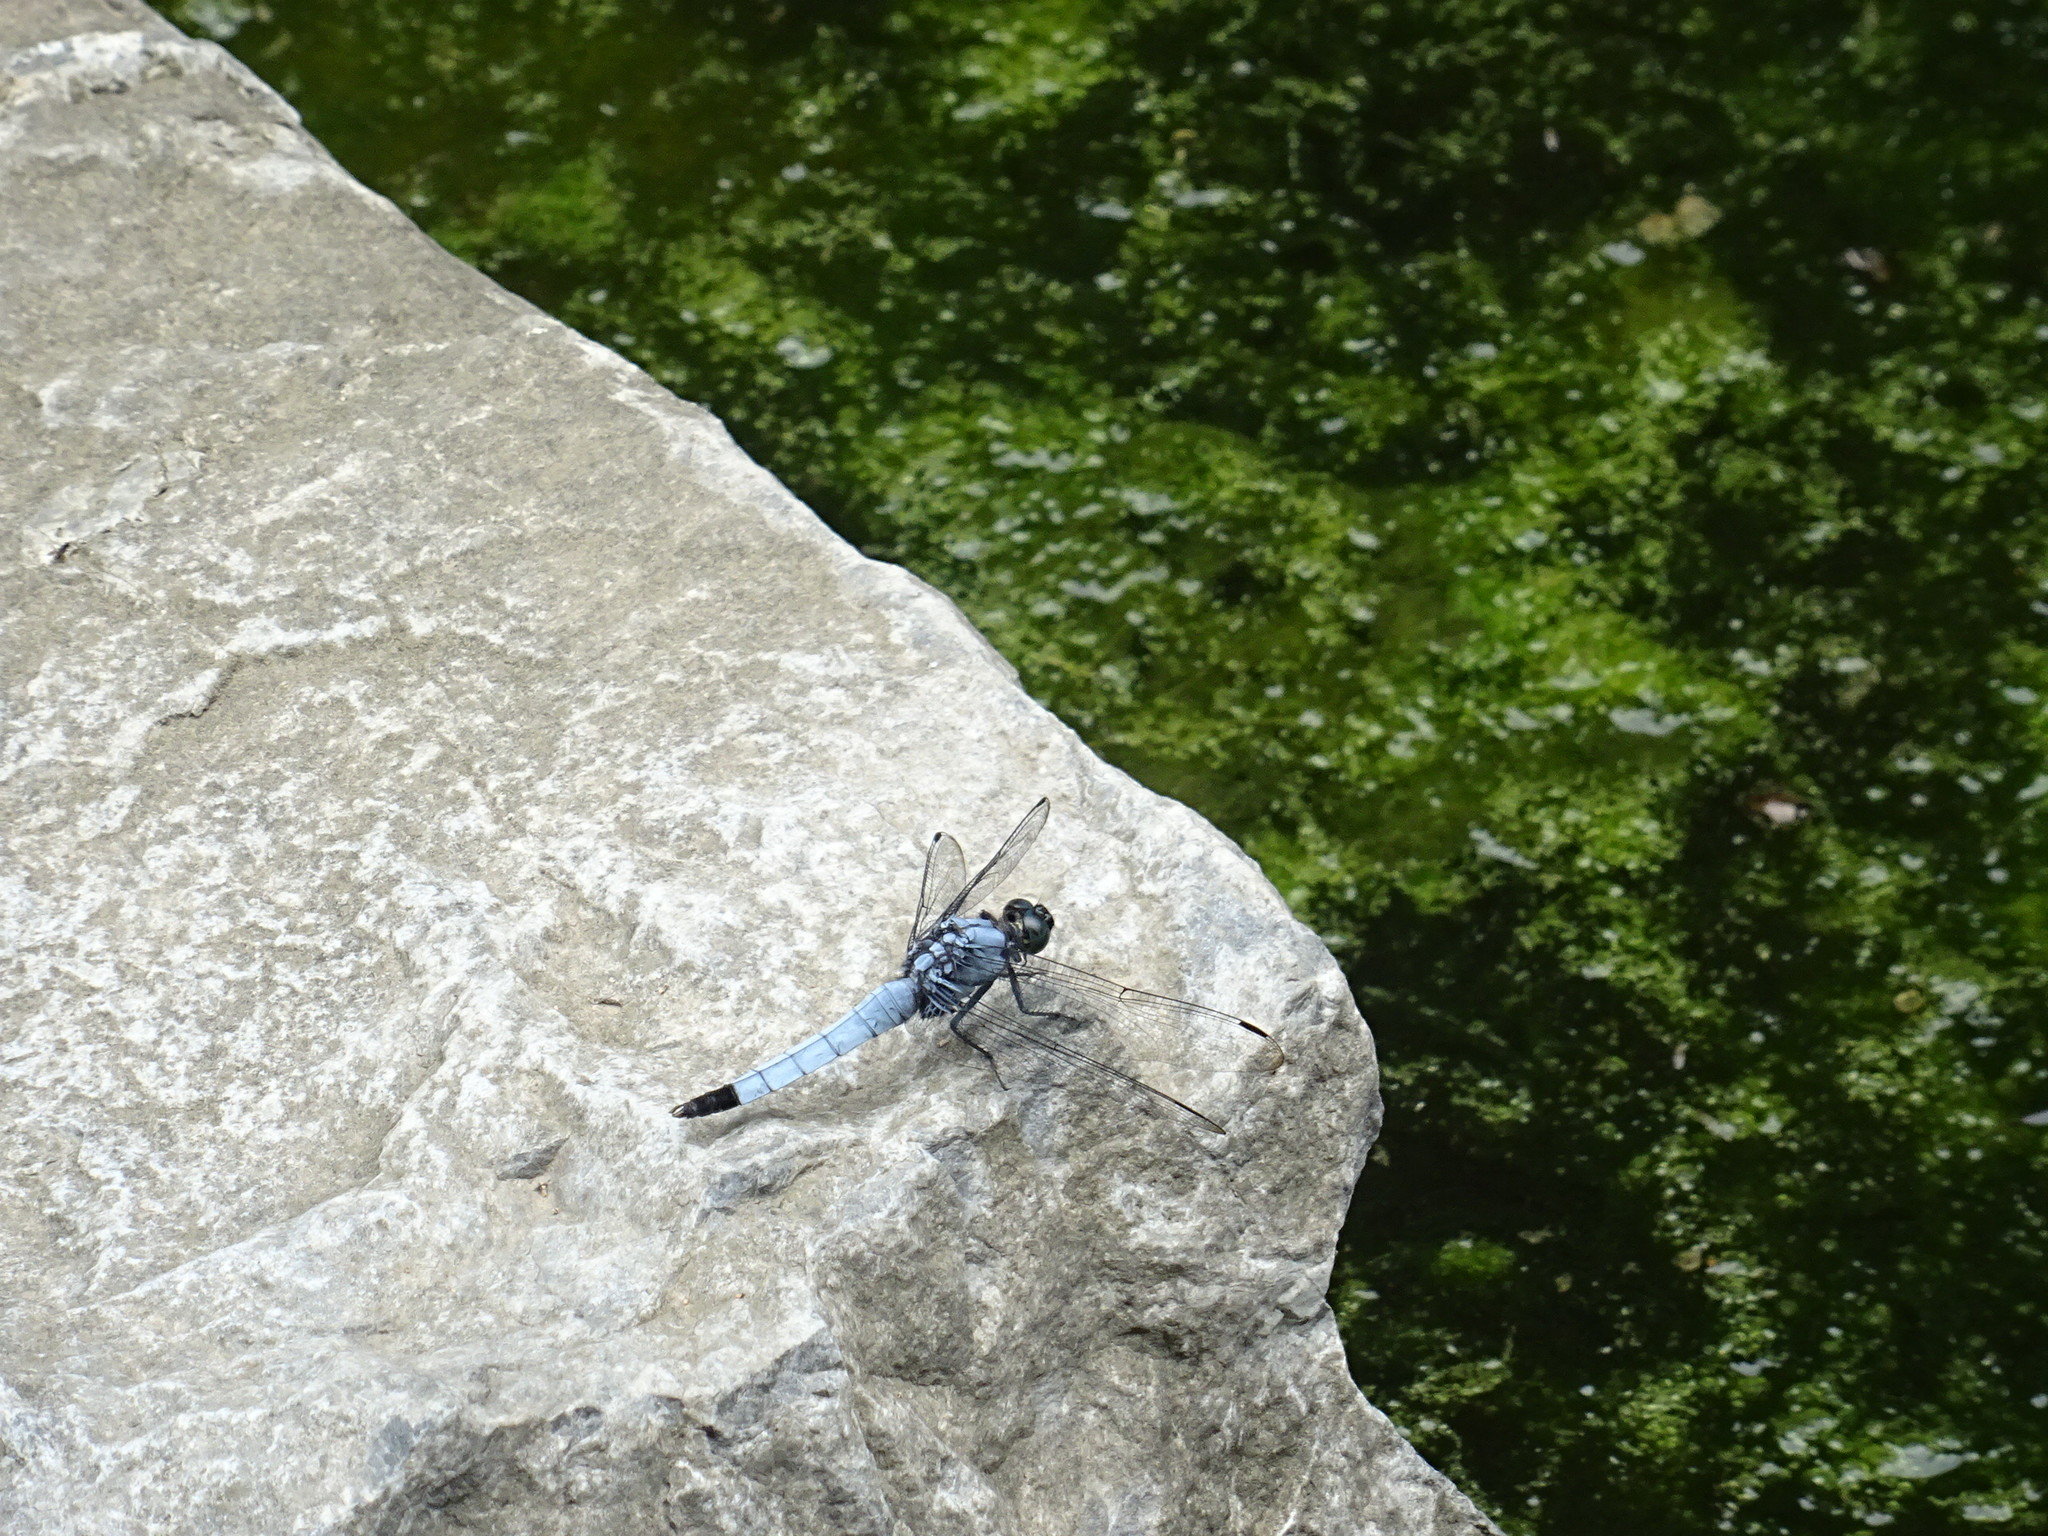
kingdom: Animalia
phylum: Arthropoda
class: Insecta
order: Odonata
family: Libellulidae
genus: Orthetrum
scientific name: Orthetrum melania
